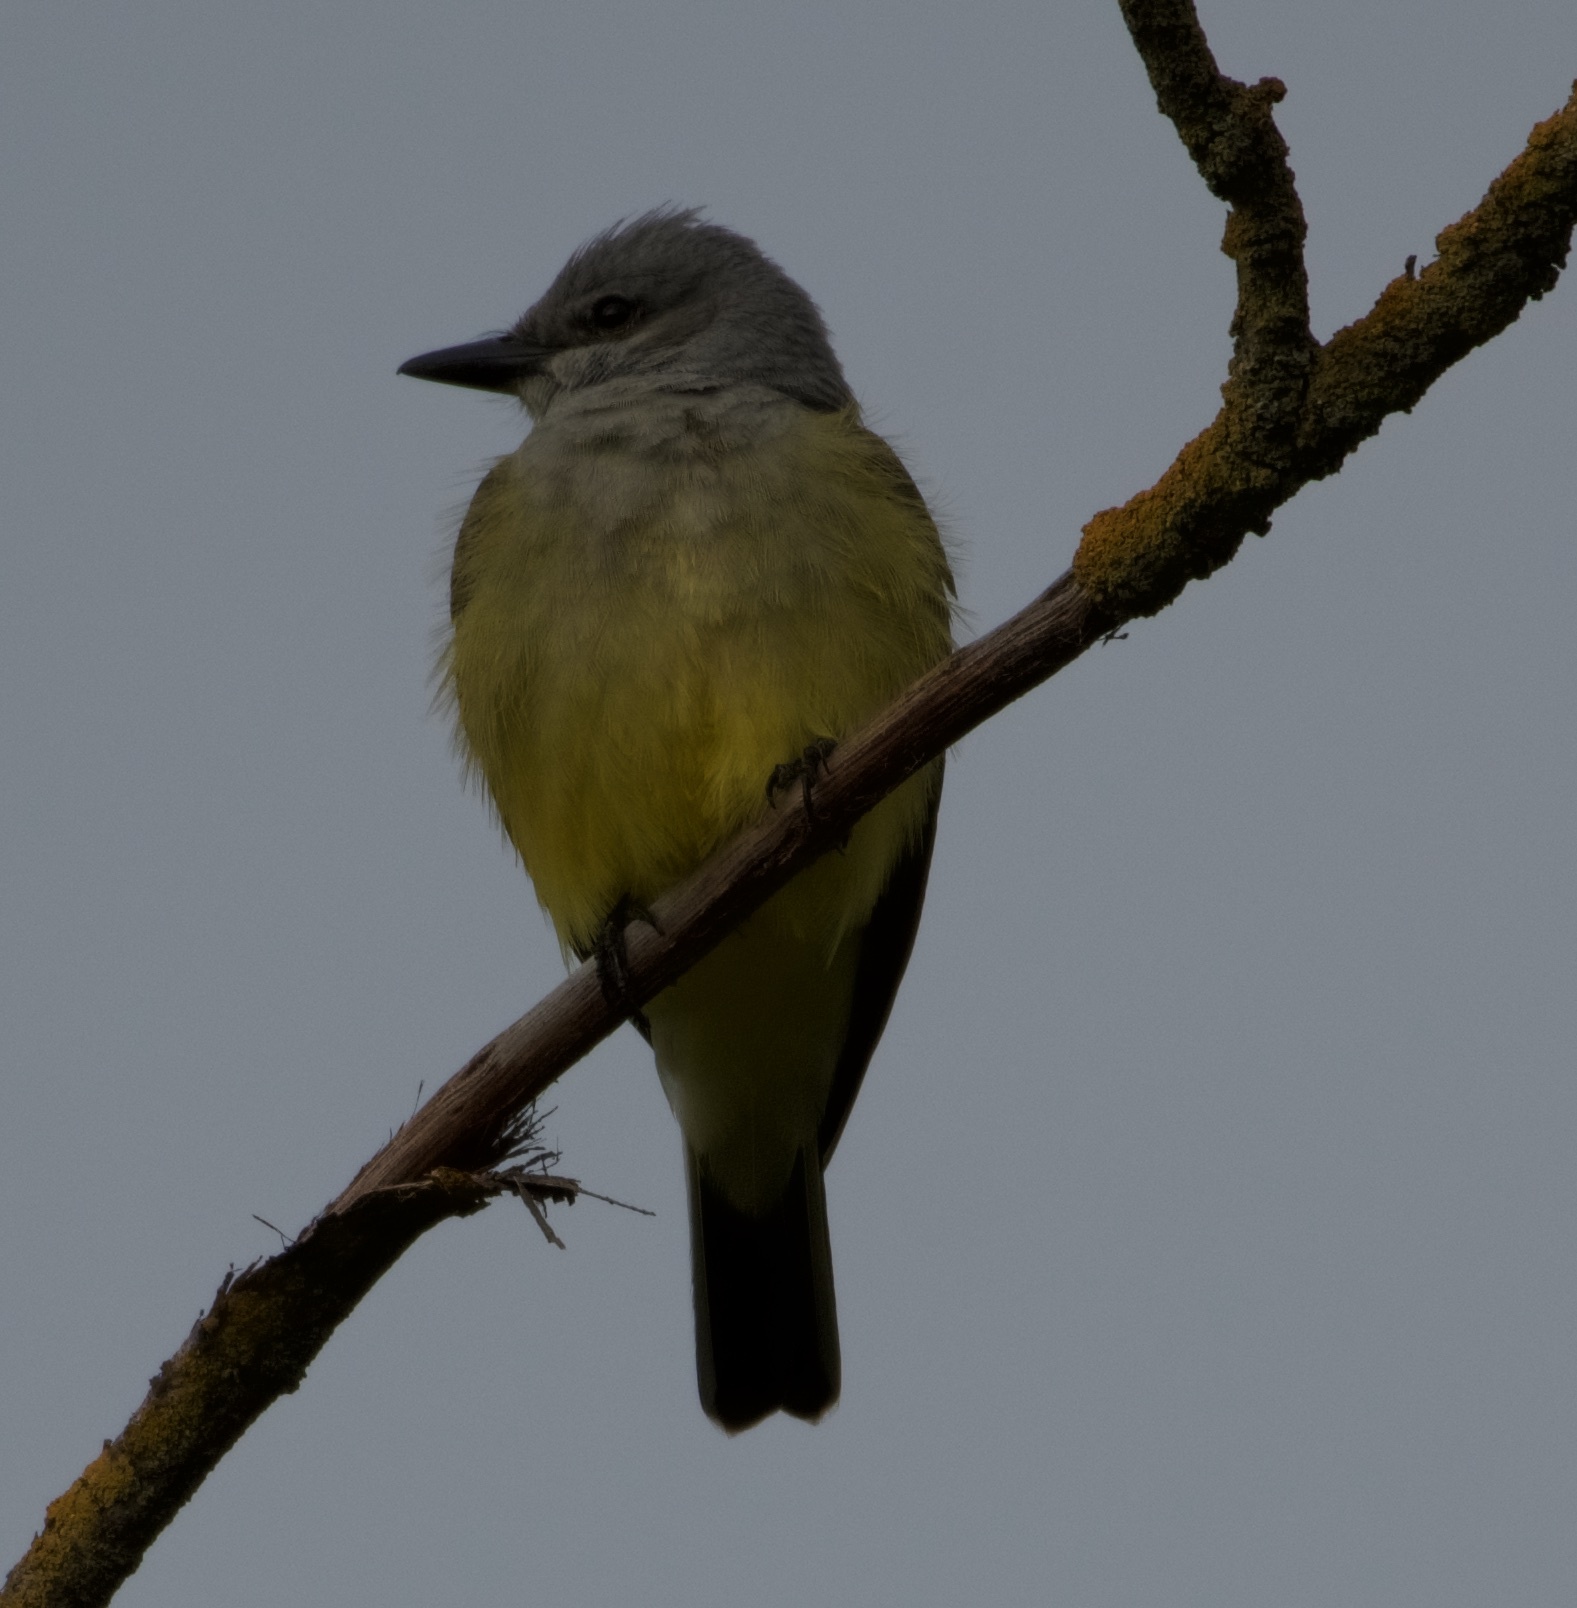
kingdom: Animalia
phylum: Chordata
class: Aves
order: Passeriformes
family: Tyrannidae
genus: Tyrannus
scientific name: Tyrannus verticalis
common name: Western kingbird
